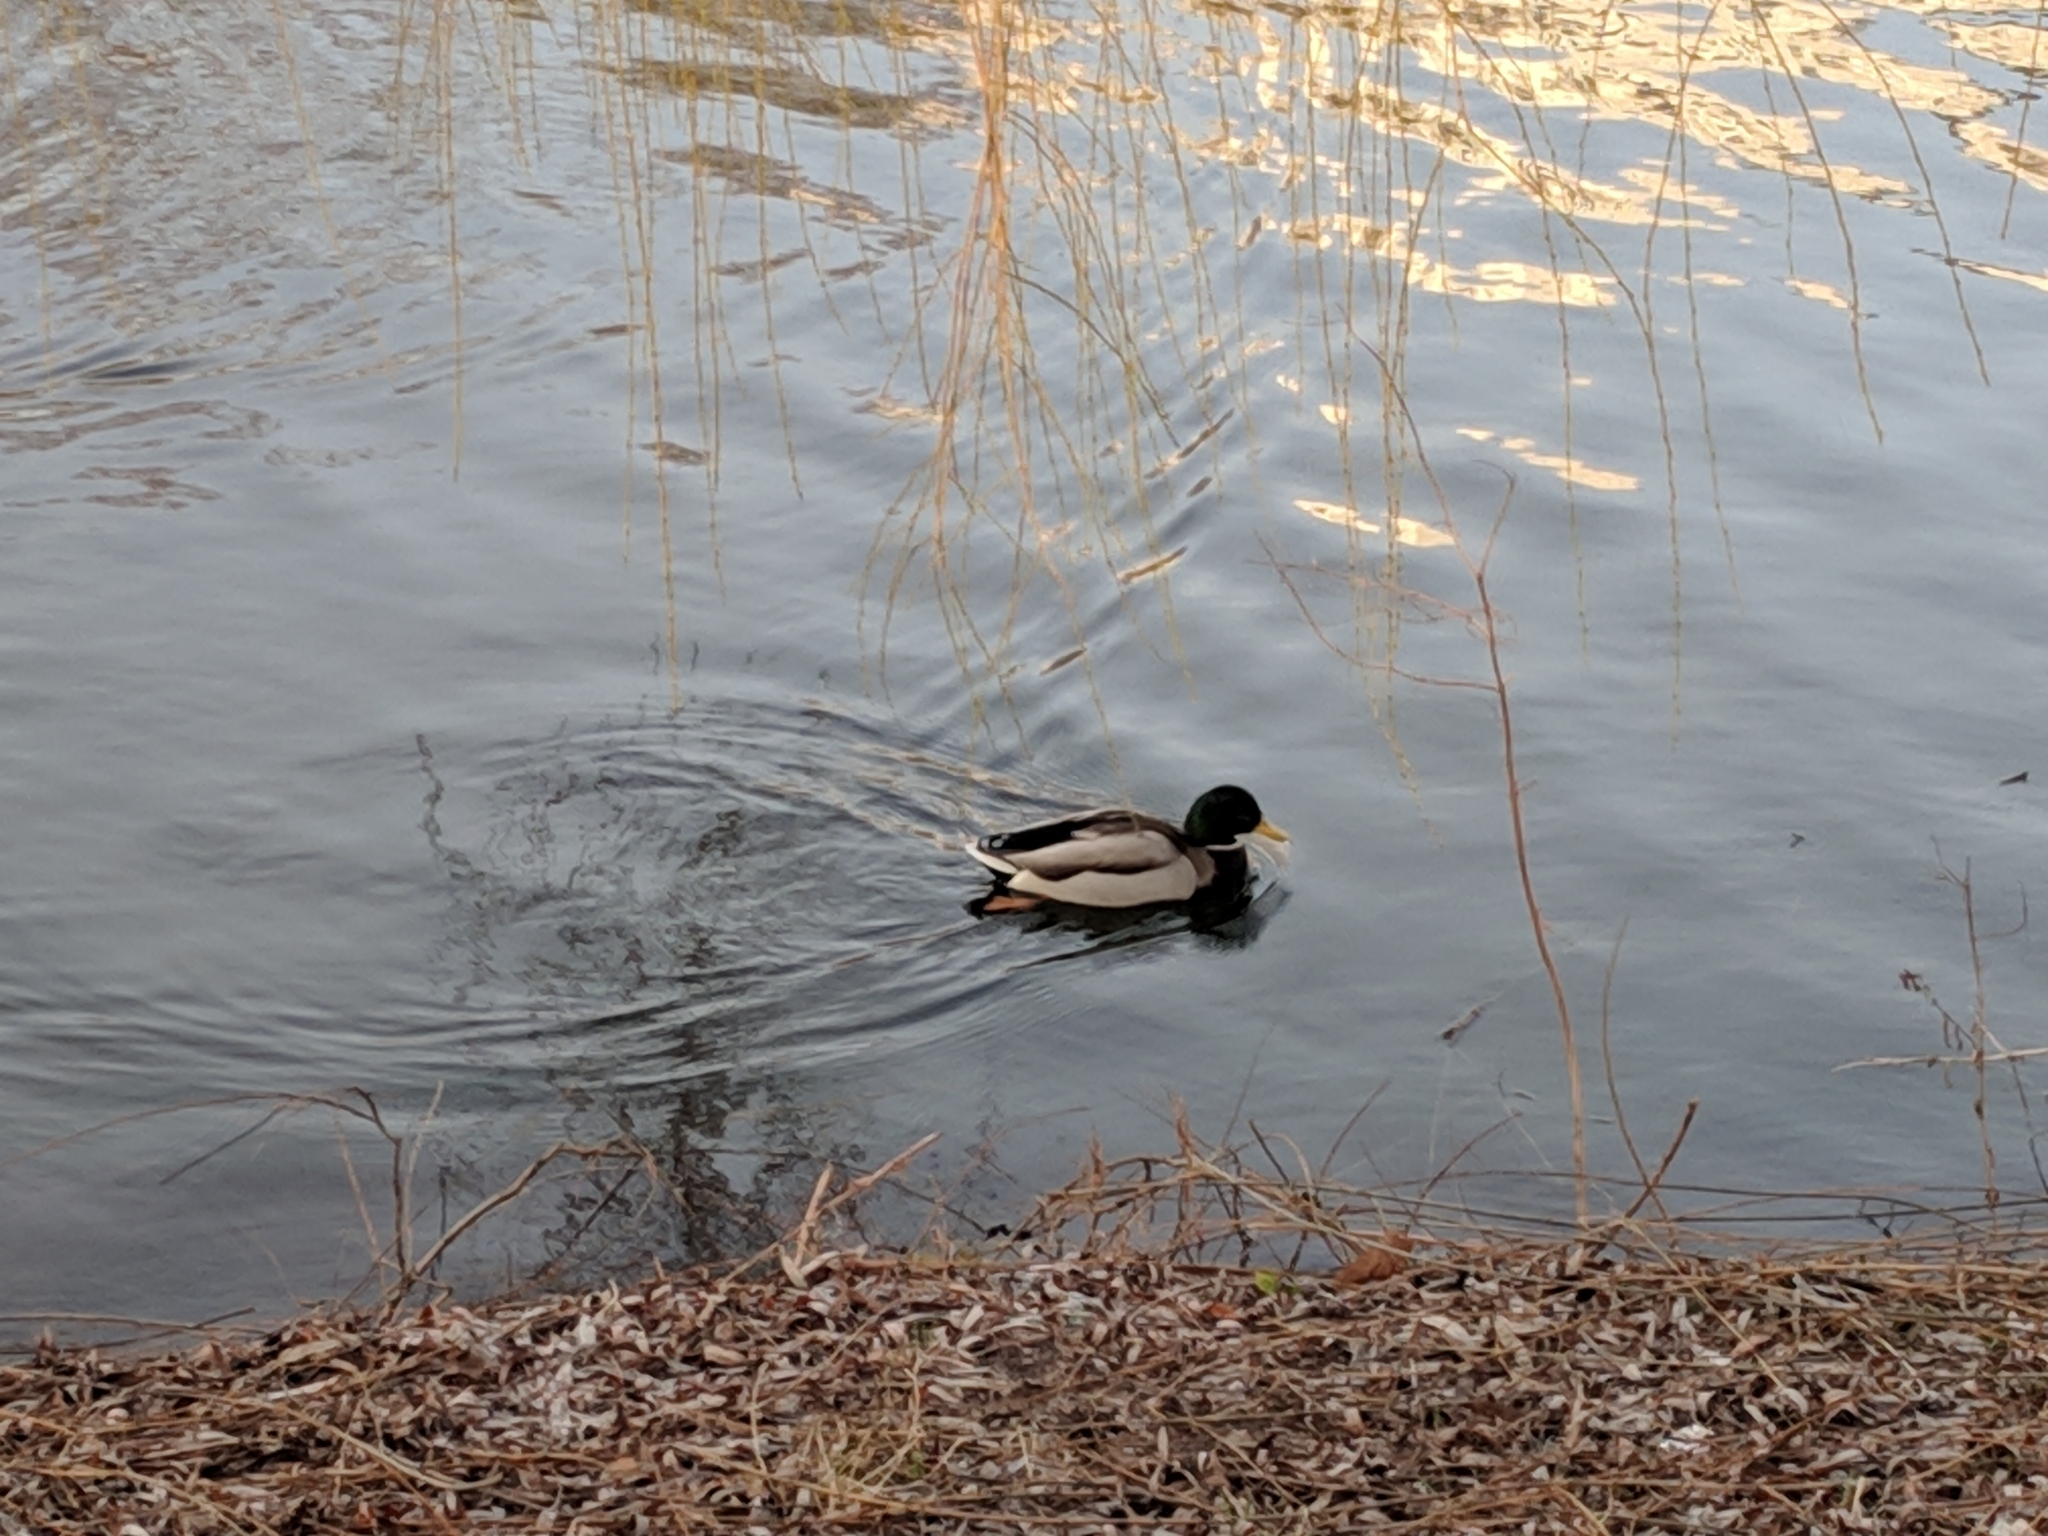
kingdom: Animalia
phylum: Chordata
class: Aves
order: Anseriformes
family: Anatidae
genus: Anas
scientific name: Anas platyrhynchos
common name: Mallard
